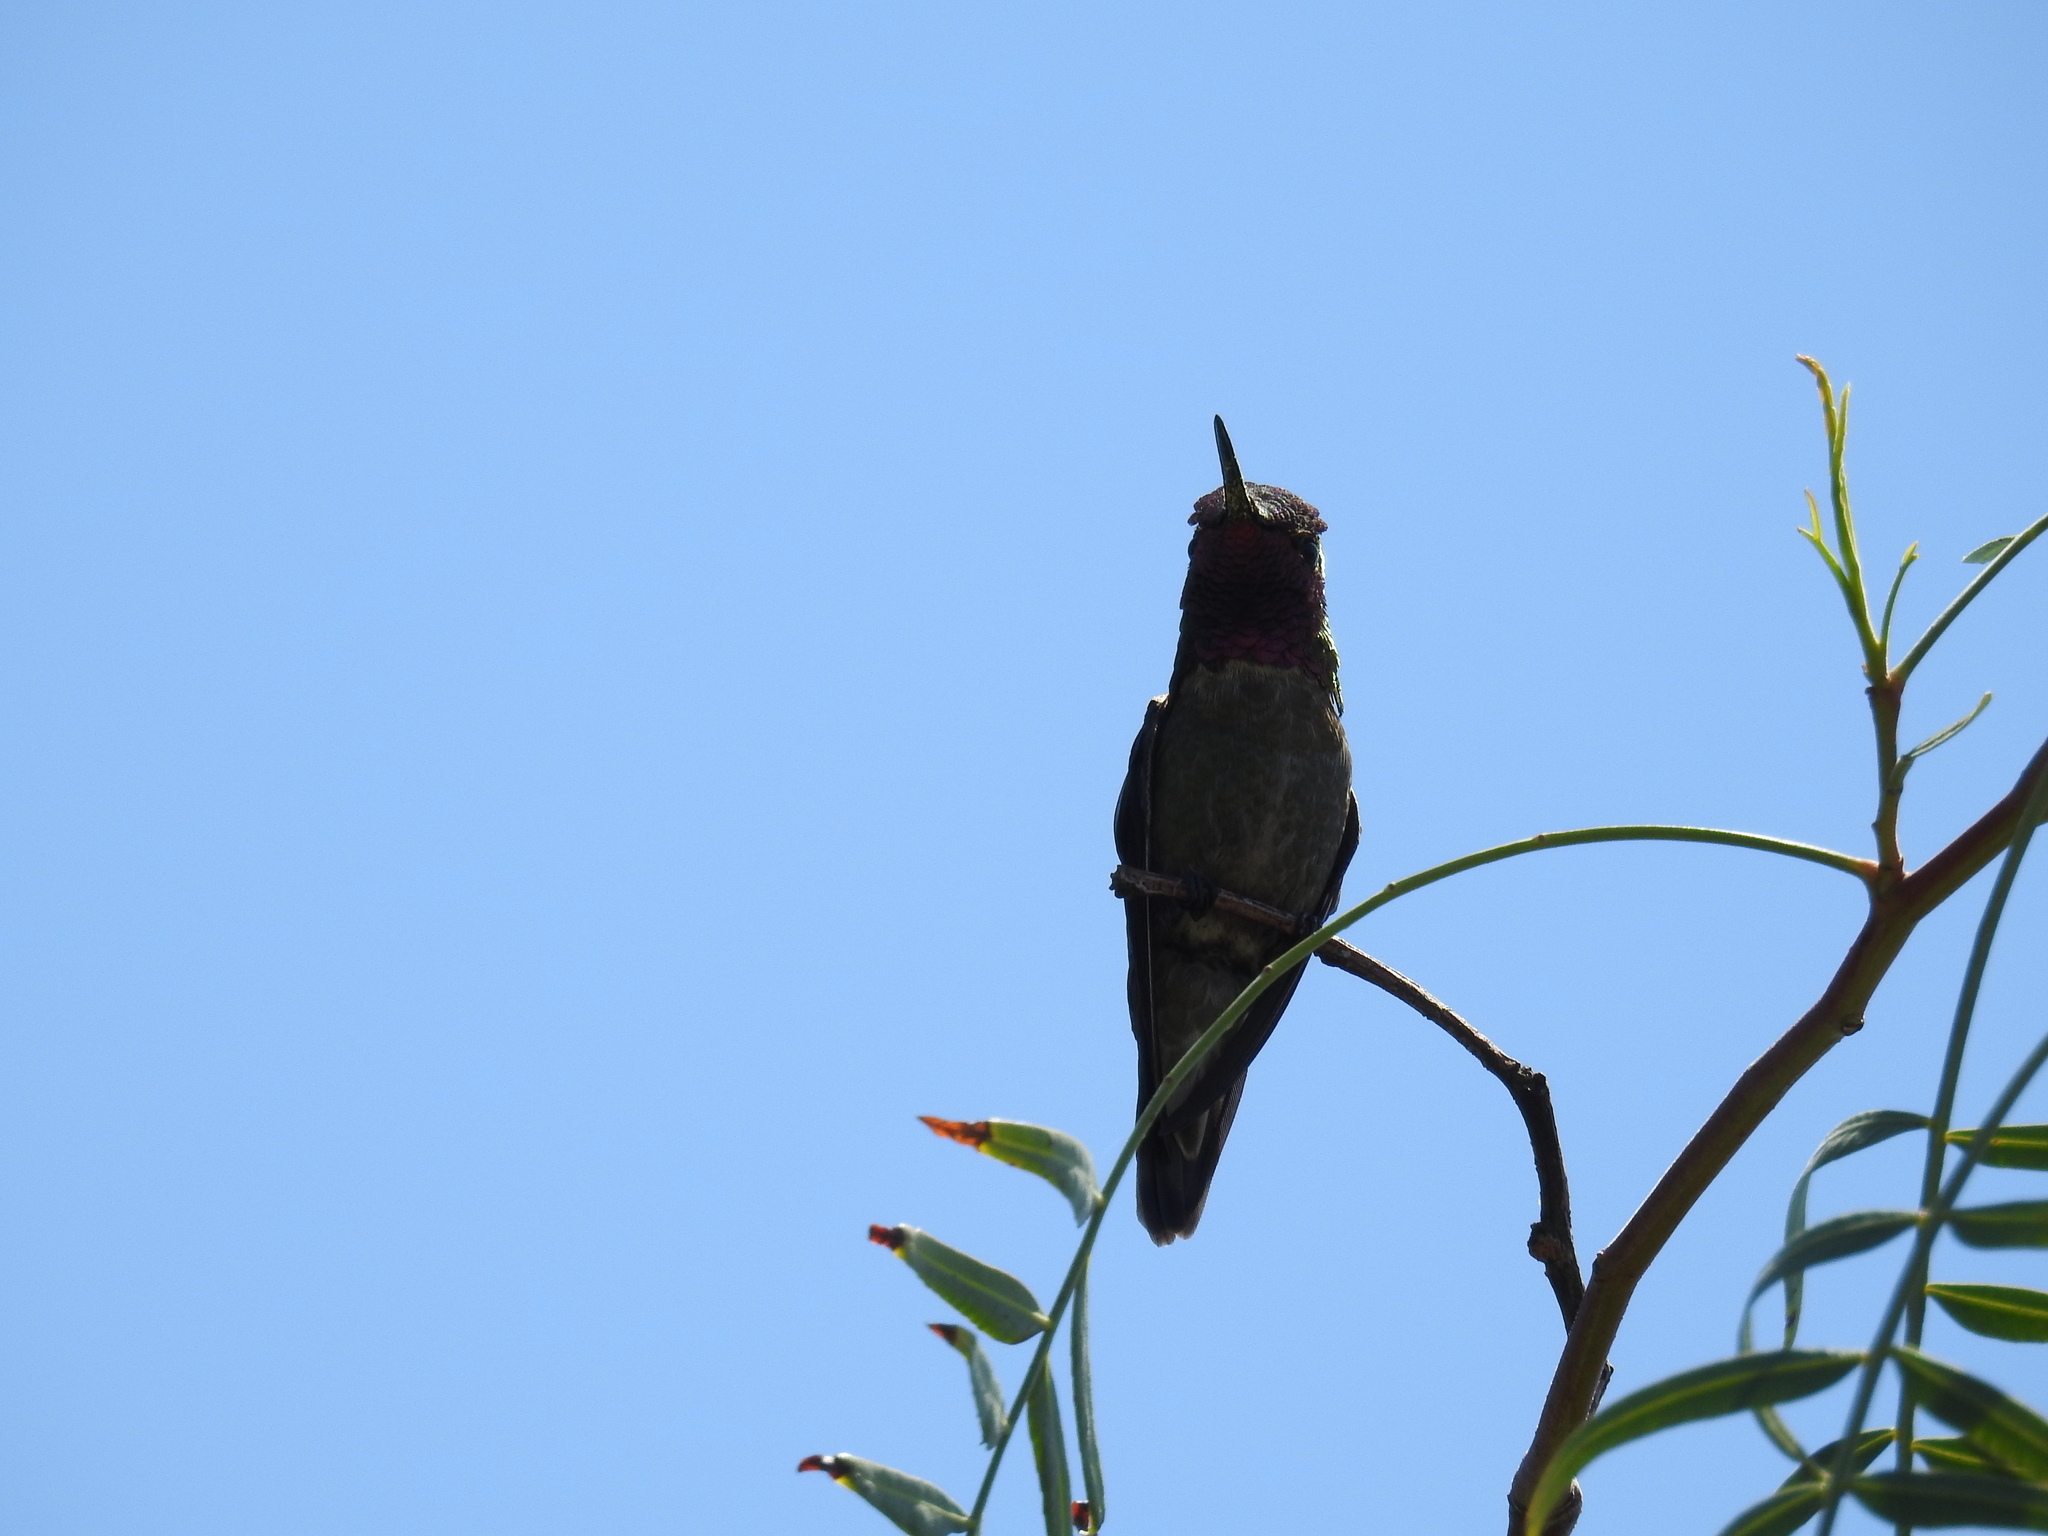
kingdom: Animalia
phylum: Chordata
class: Aves
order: Apodiformes
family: Trochilidae
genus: Calypte
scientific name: Calypte anna
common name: Anna's hummingbird
